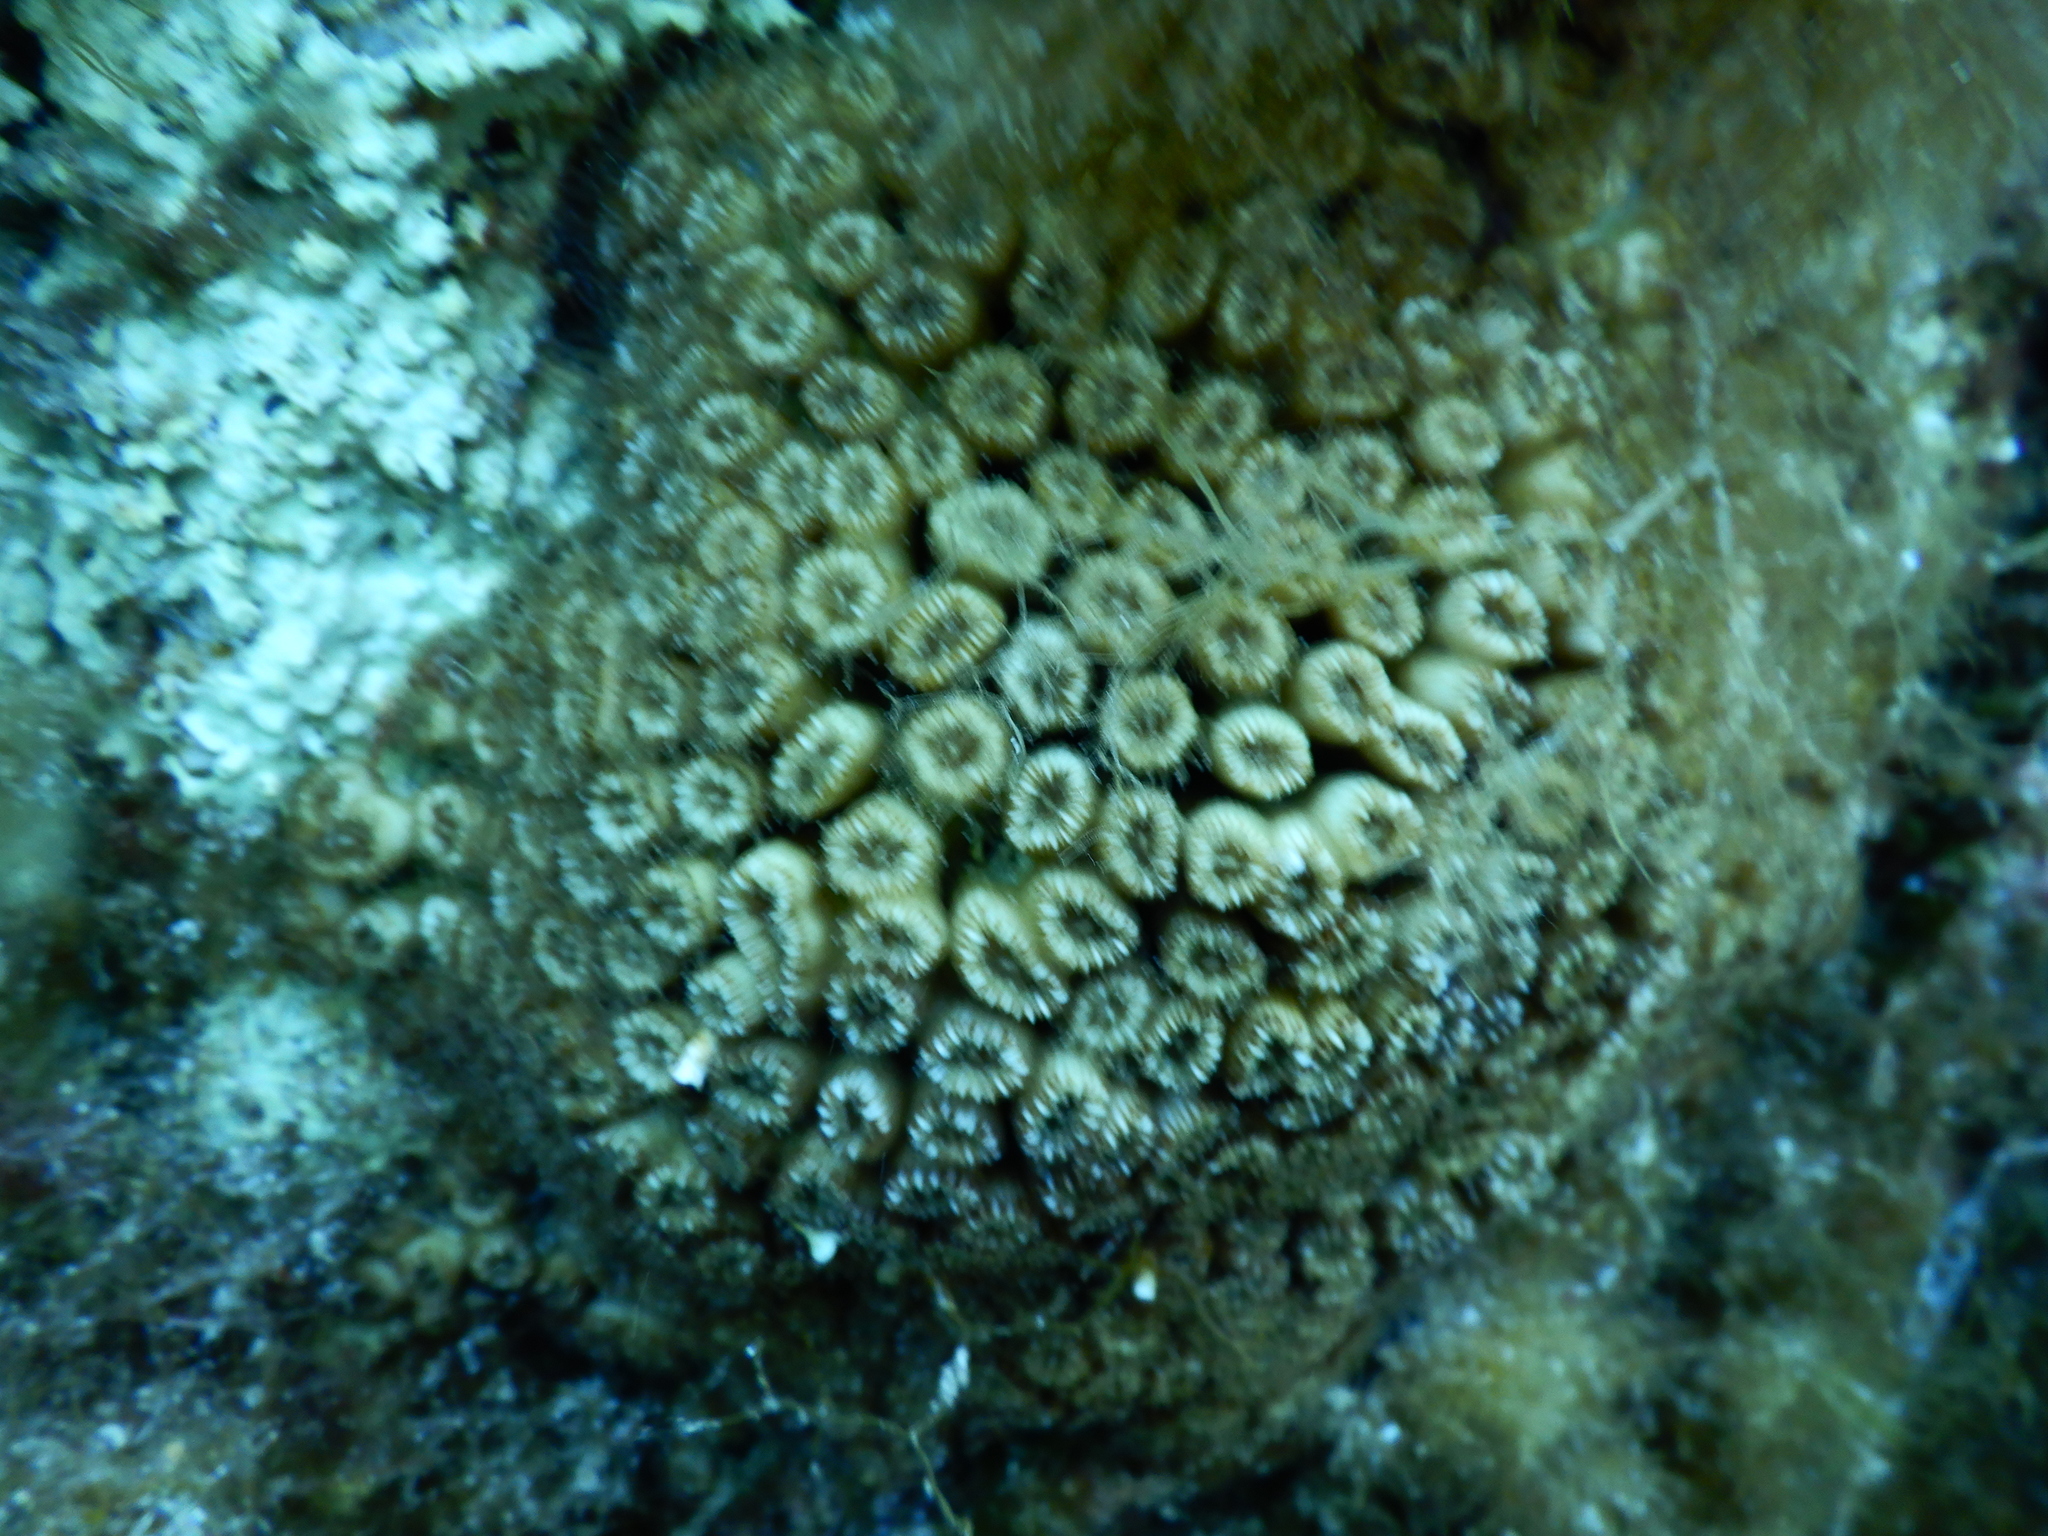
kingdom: Animalia
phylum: Cnidaria
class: Anthozoa
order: Scleractinia
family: Cladocoridae
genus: Cladocora
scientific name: Cladocora caespitosa
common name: Cladocora
